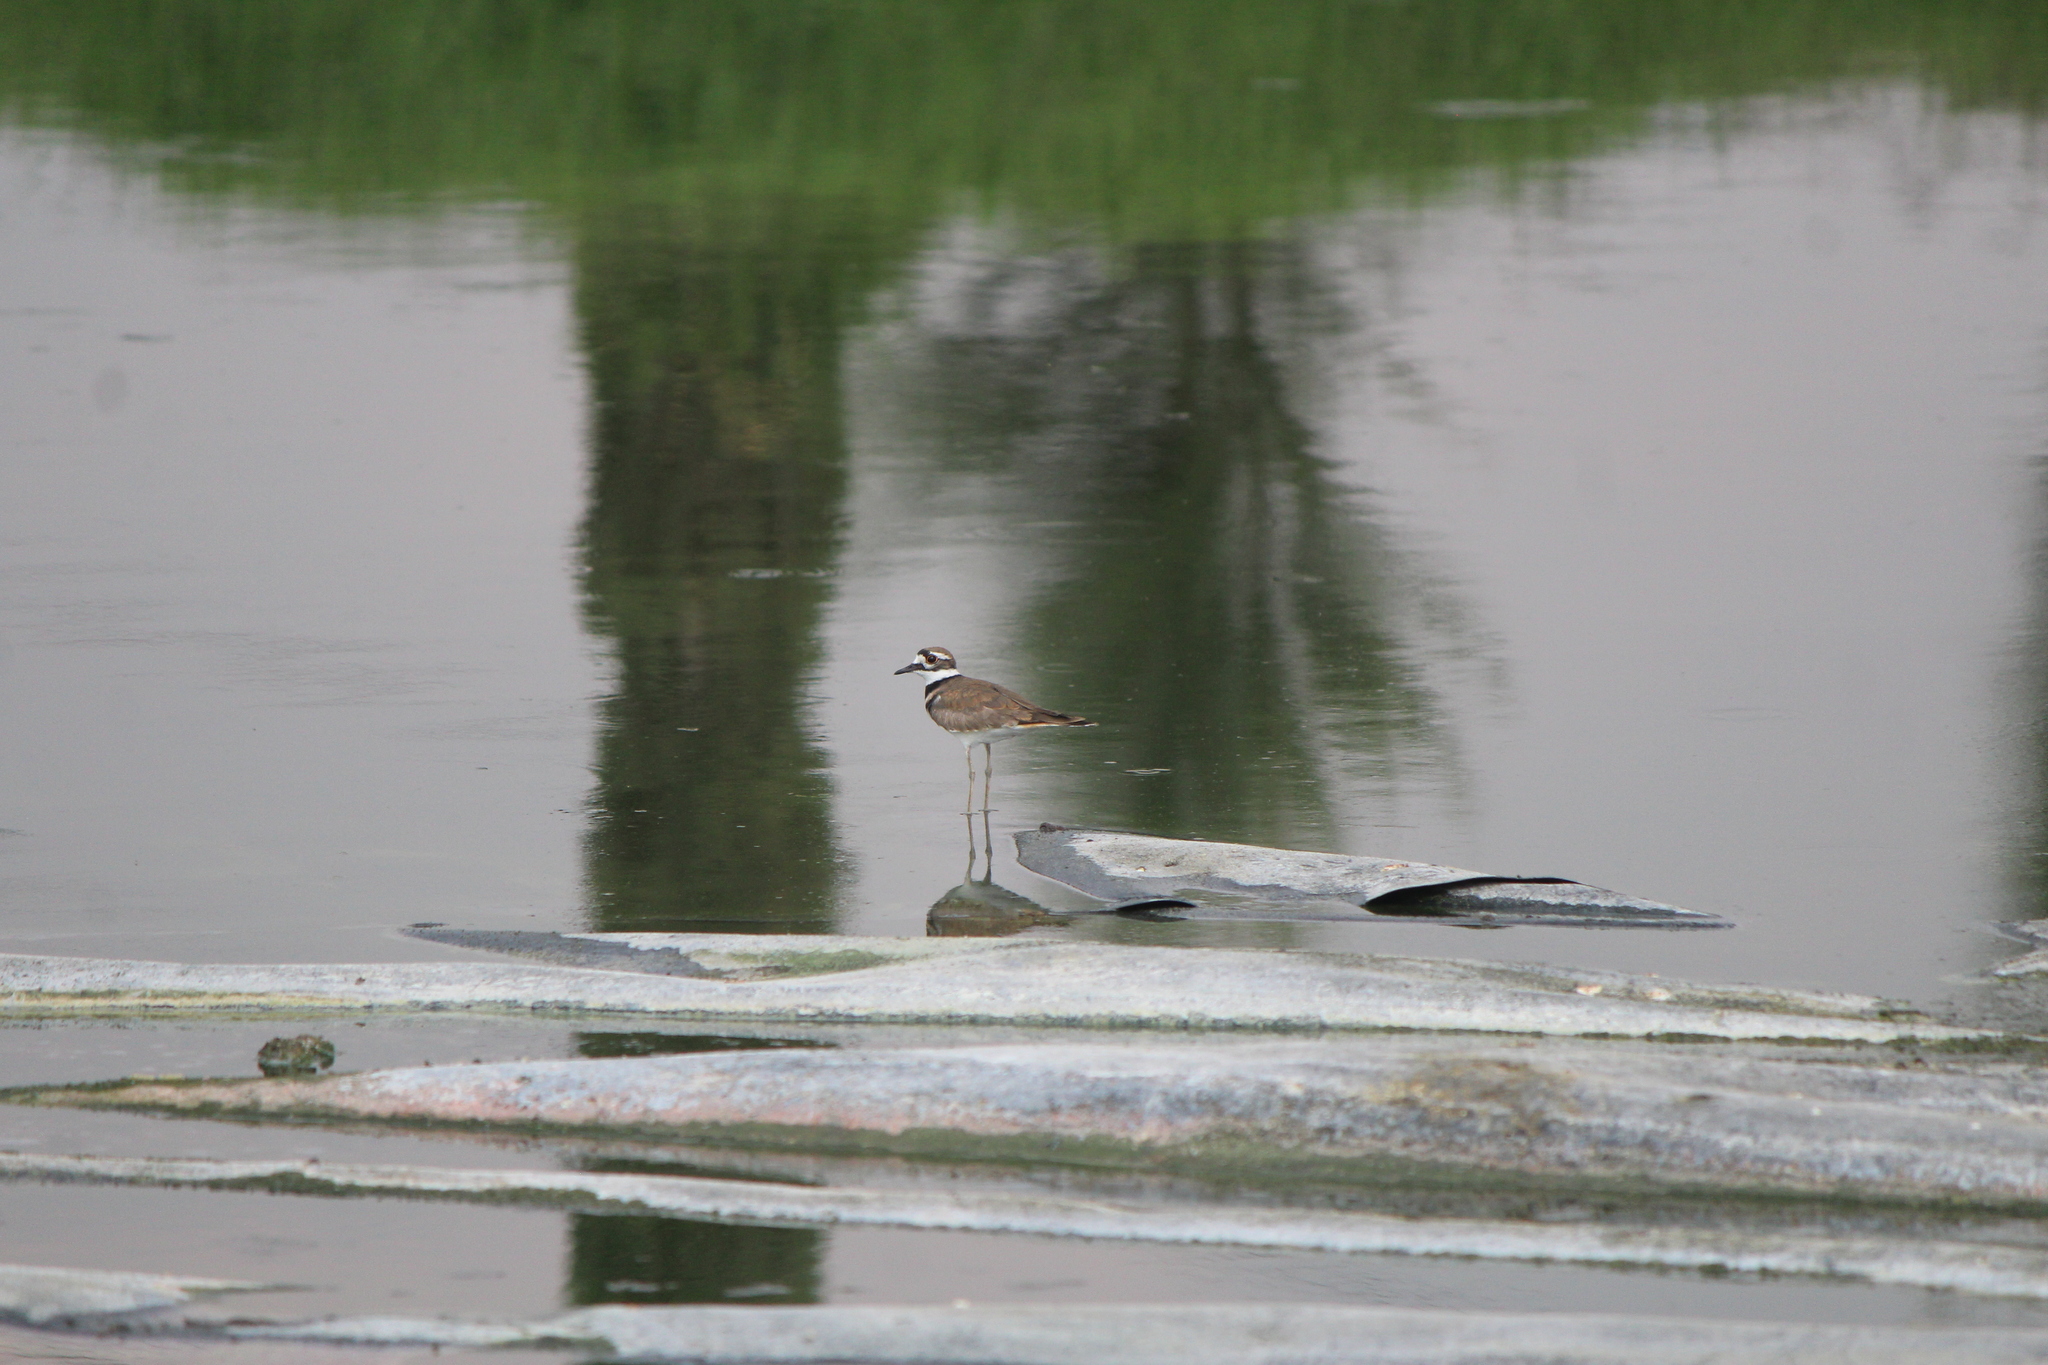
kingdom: Animalia
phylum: Chordata
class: Aves
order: Charadriiformes
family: Charadriidae
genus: Charadrius
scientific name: Charadrius vociferus
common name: Killdeer
